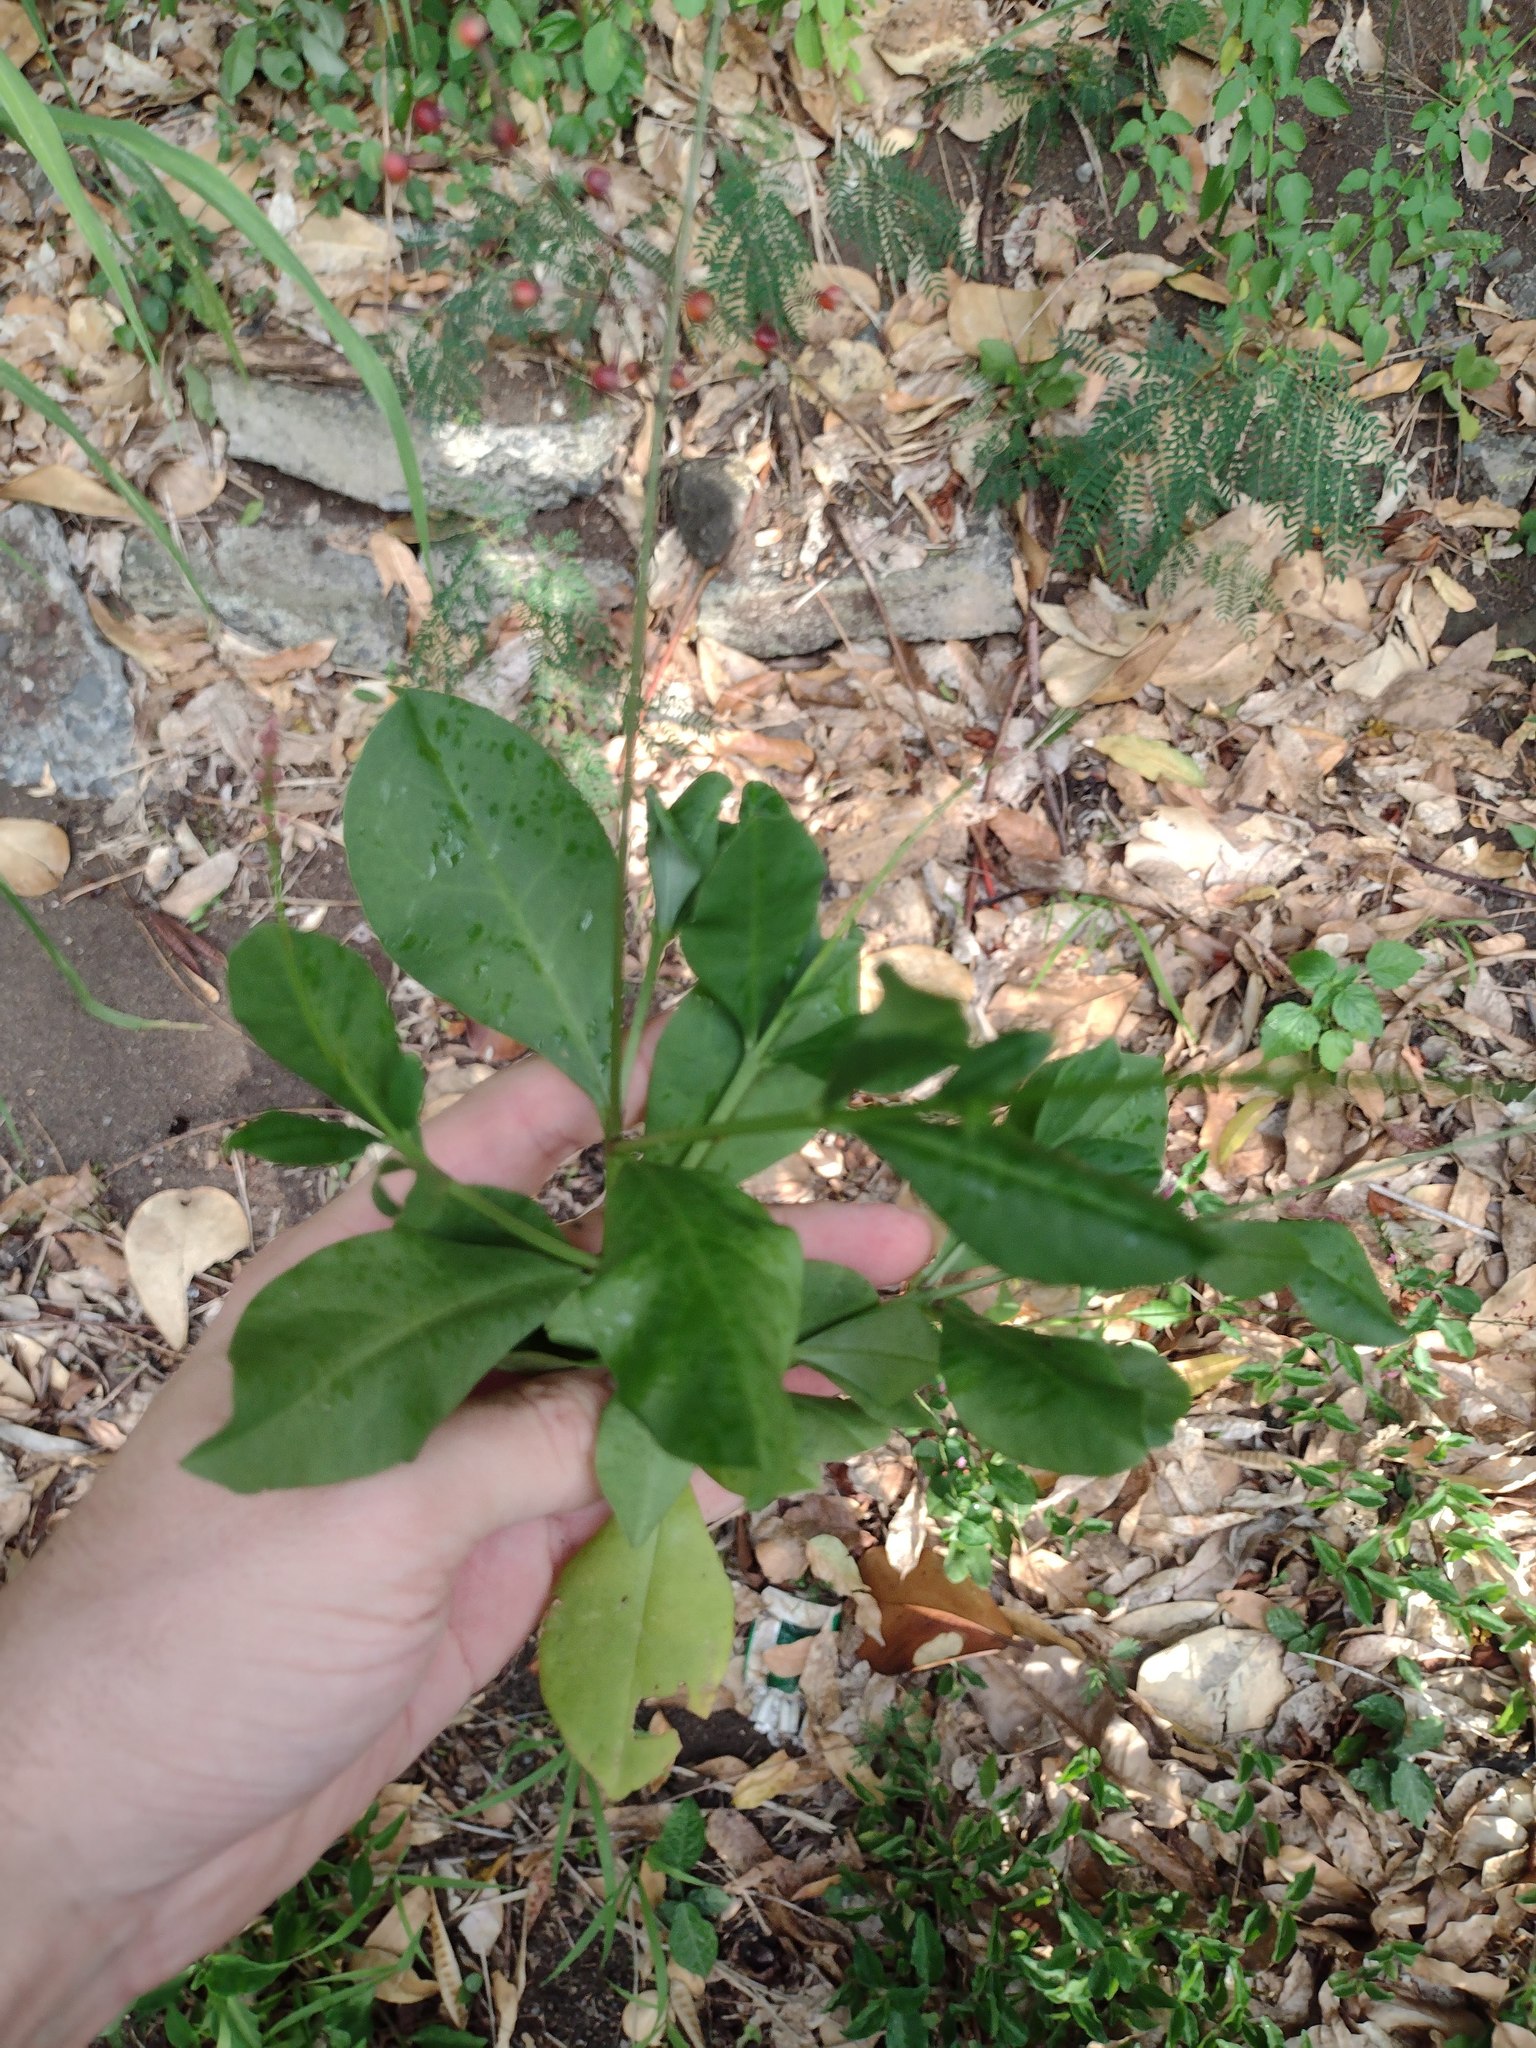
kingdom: Plantae
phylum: Tracheophyta
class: Magnoliopsida
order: Caryophyllales
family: Talinaceae
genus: Talinum
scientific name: Talinum paniculatum
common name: Jewels of opar
